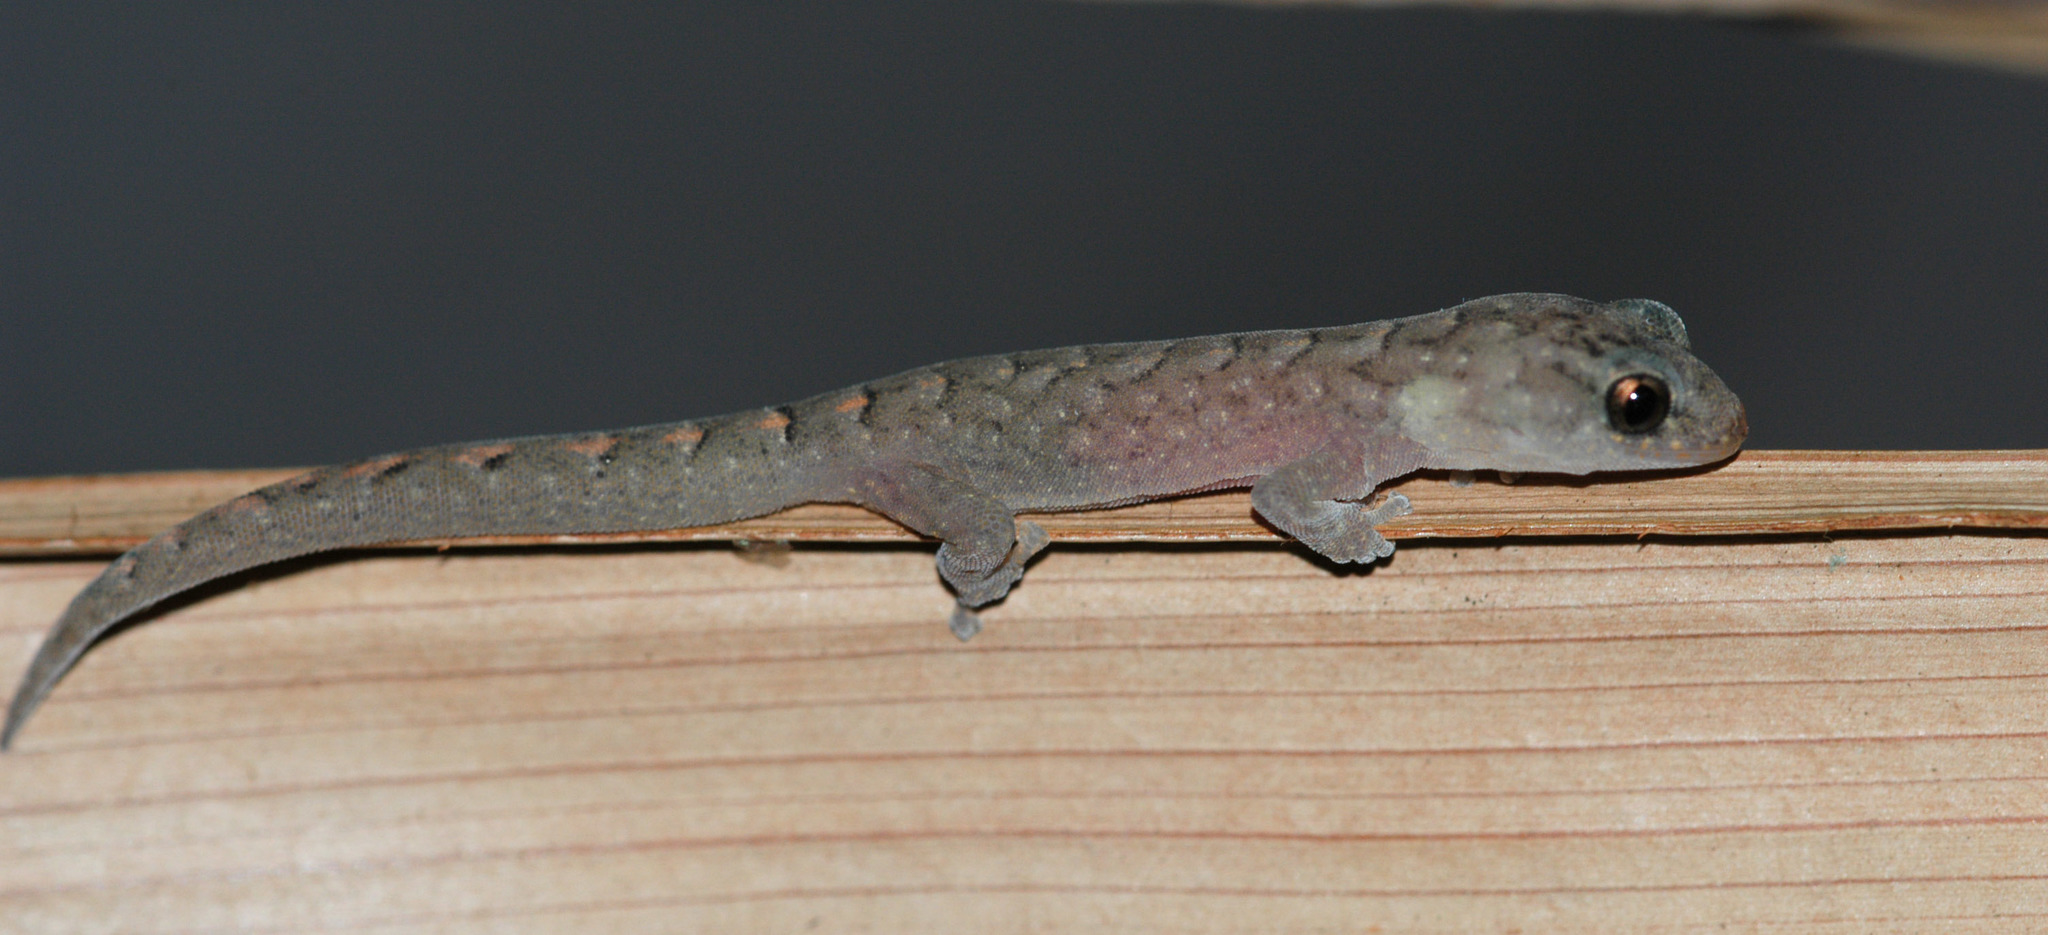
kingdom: Animalia
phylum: Chordata
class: Squamata
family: Gekkonidae
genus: Christinus
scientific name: Christinus marmoratus
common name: Marbled gecko
